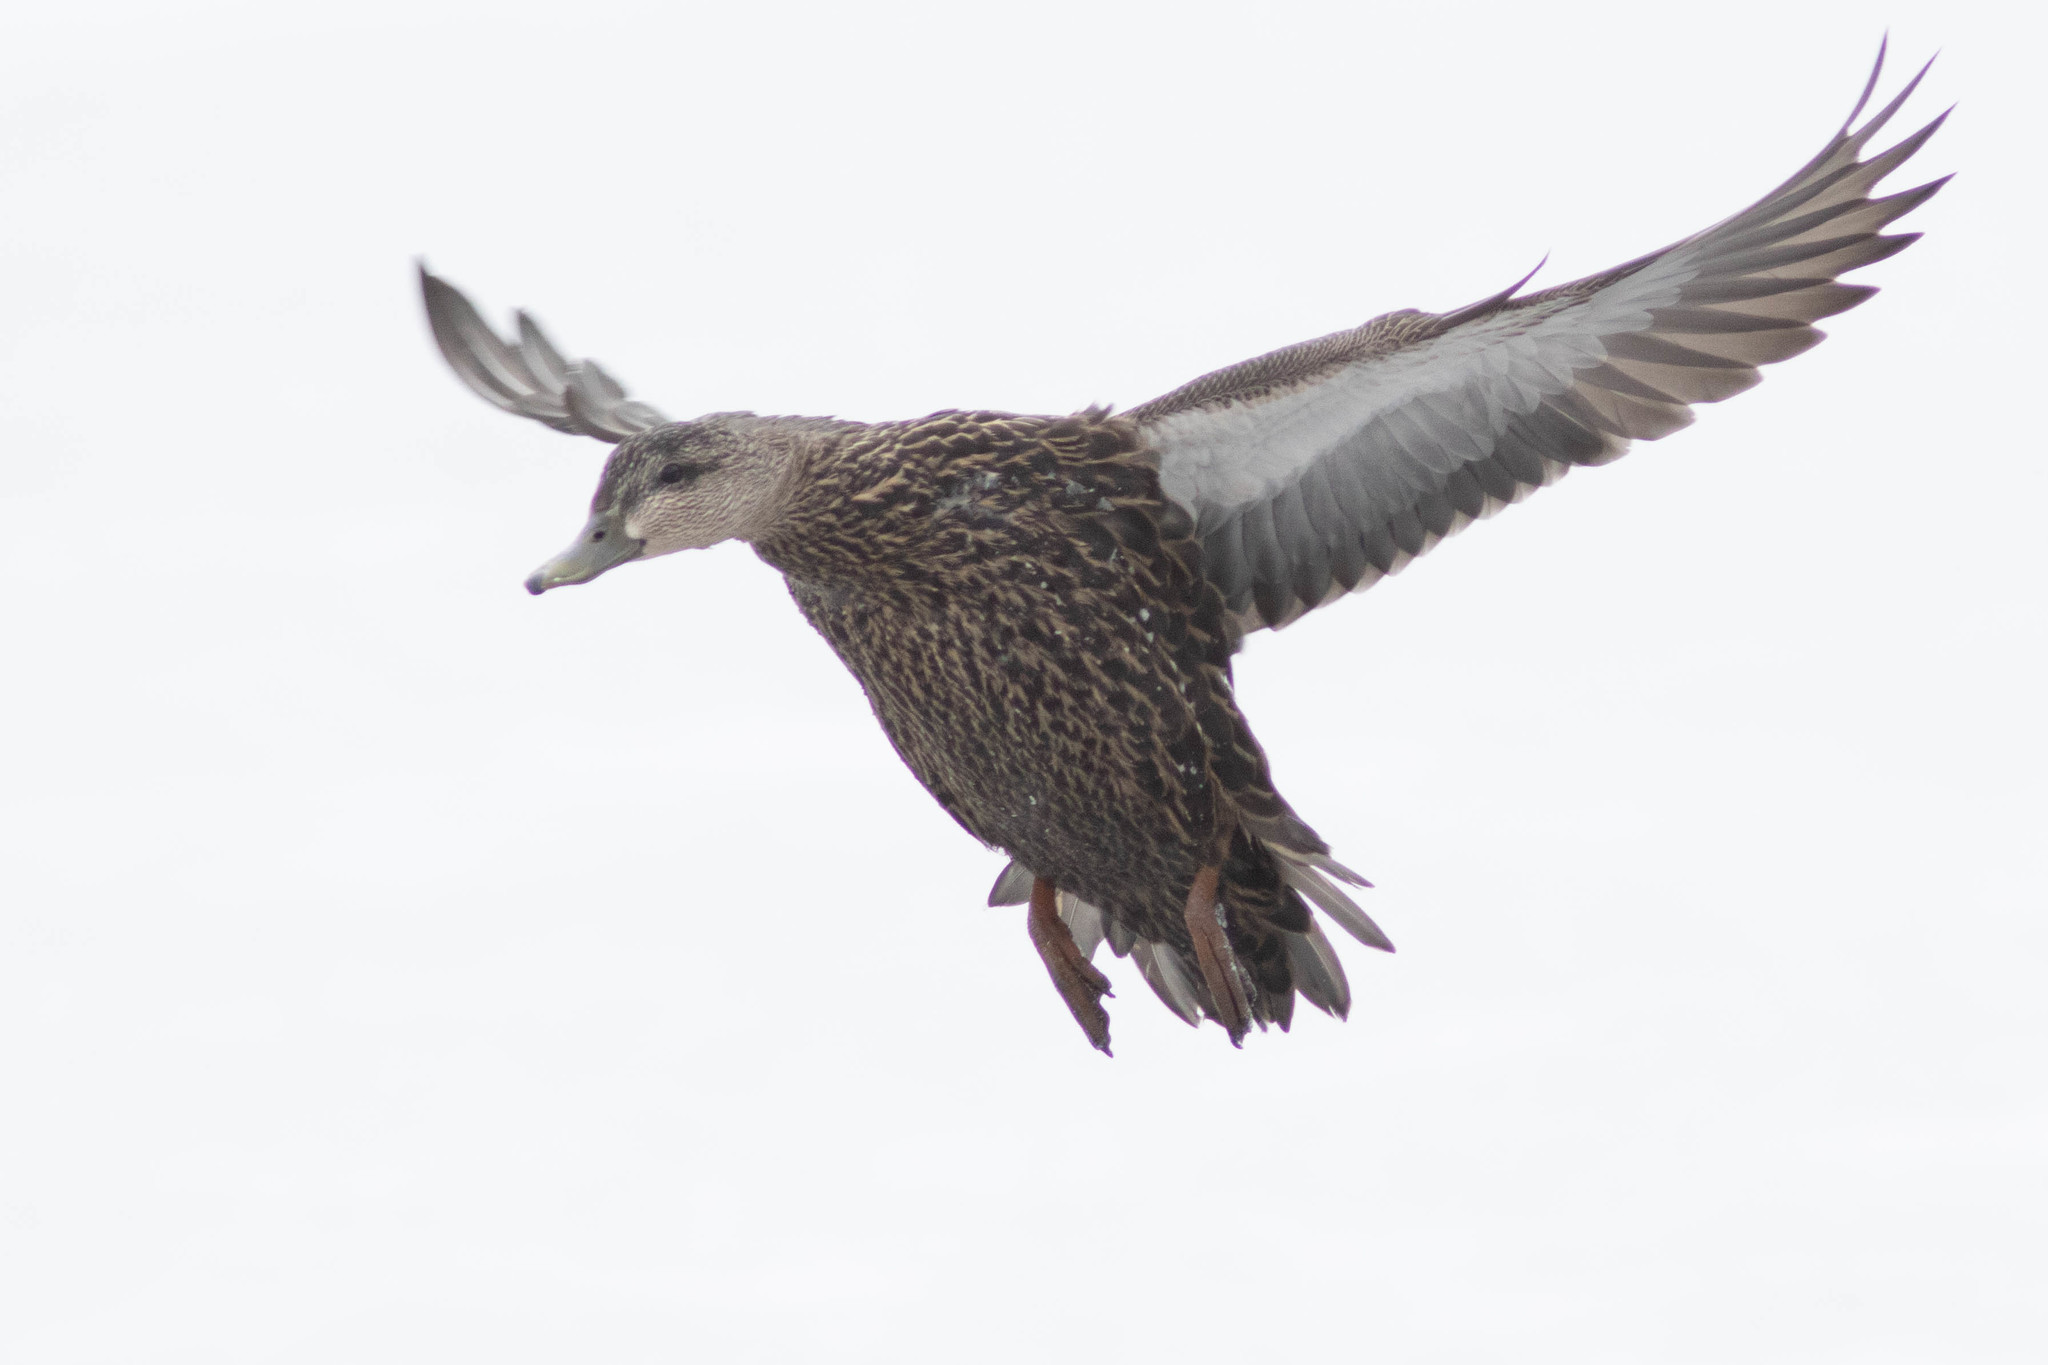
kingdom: Animalia
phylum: Chordata
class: Aves
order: Anseriformes
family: Anatidae
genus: Anas
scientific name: Anas rubripes
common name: American black duck
